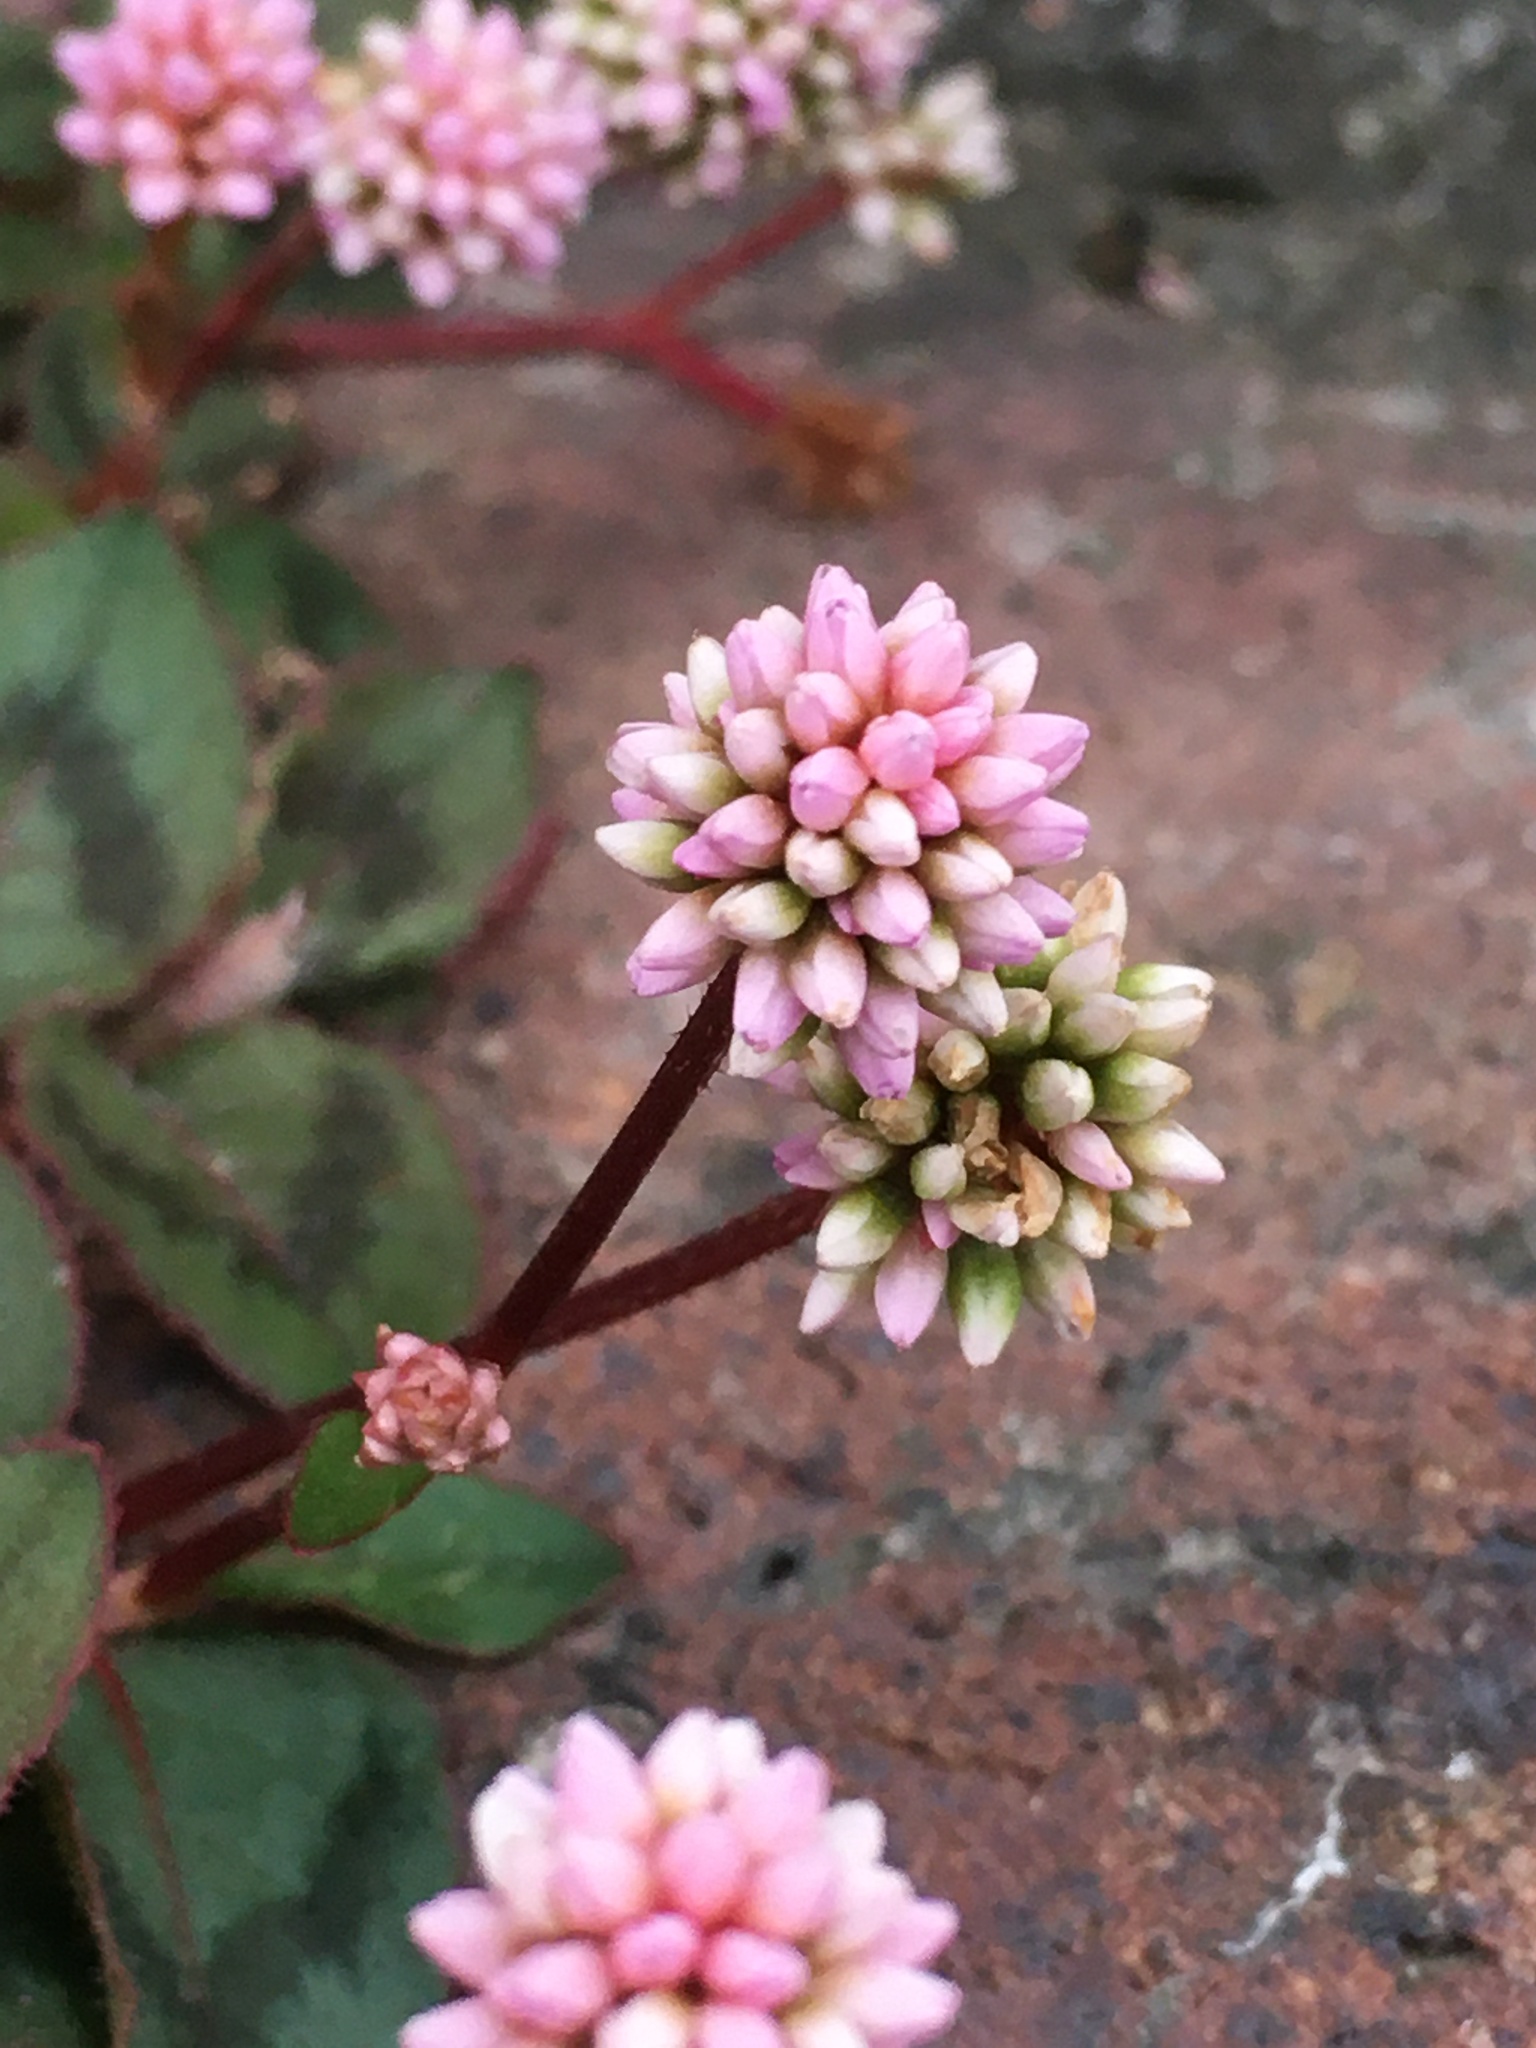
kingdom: Plantae
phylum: Tracheophyta
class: Magnoliopsida
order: Caryophyllales
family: Polygonaceae
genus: Persicaria
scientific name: Persicaria capitata
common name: Pinkhead smartweed
